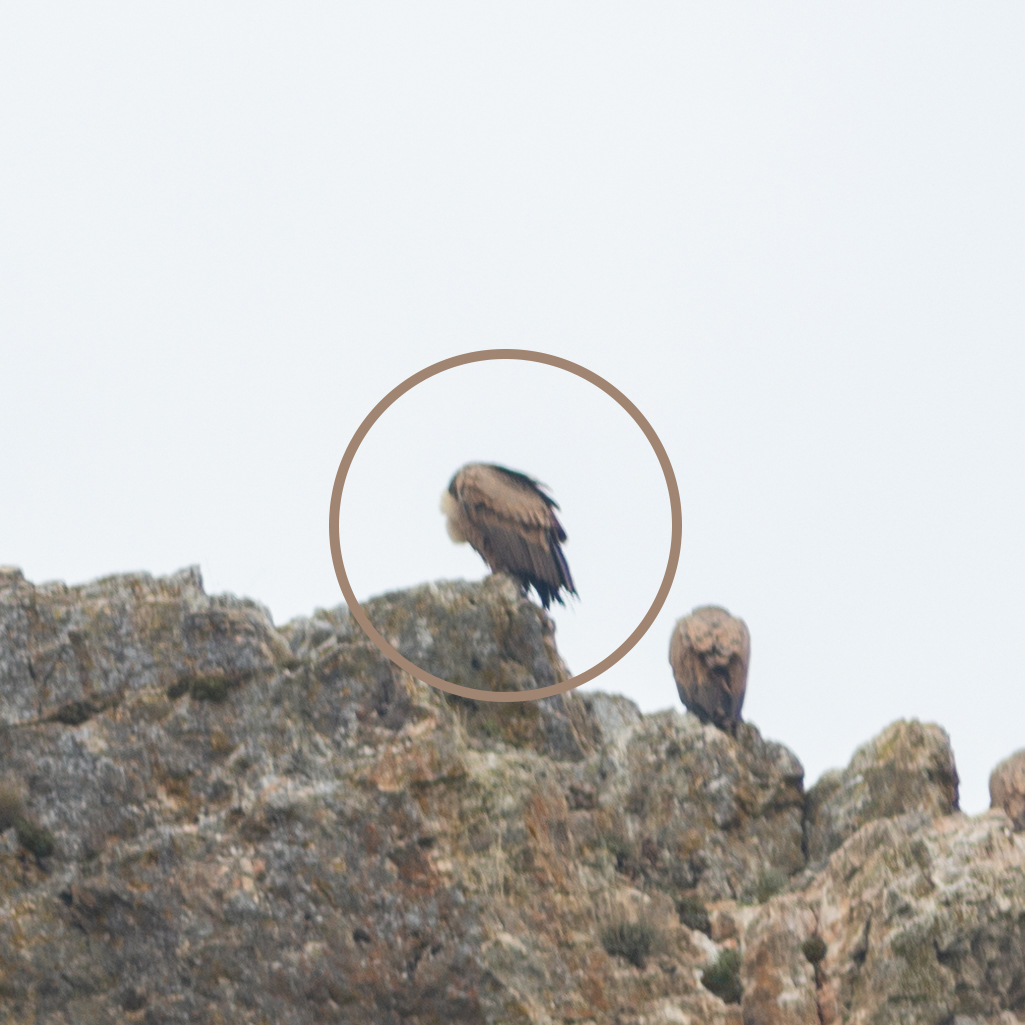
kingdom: Animalia
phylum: Chordata
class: Aves
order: Accipitriformes
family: Accipitridae
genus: Gyps
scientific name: Gyps fulvus
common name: Griffon vulture
